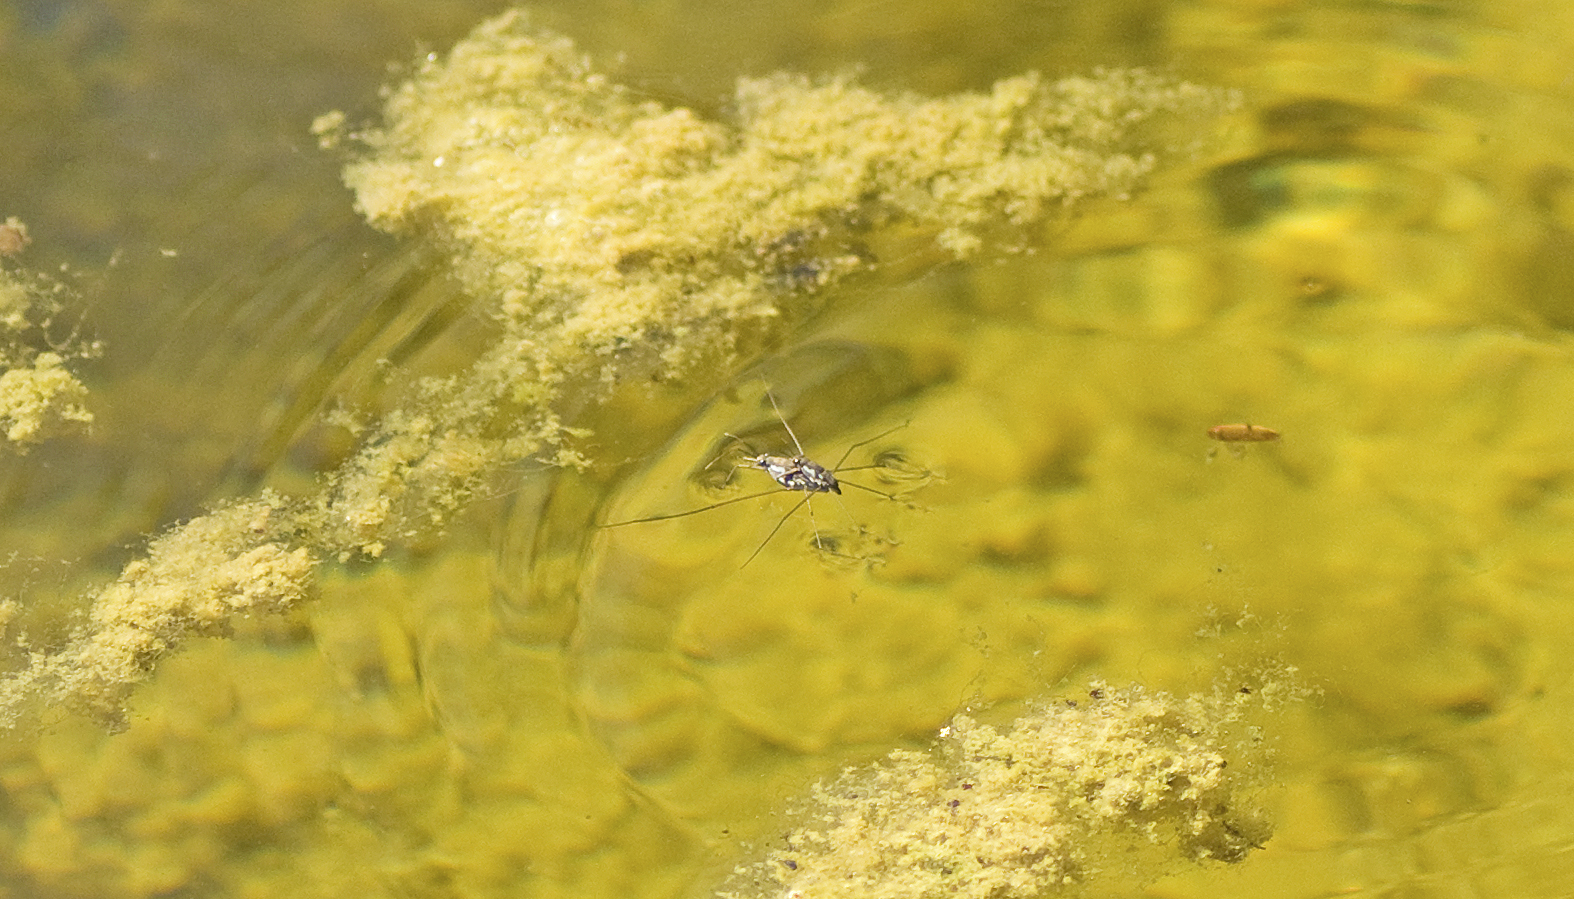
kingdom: Animalia
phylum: Arthropoda
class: Insecta
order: Hemiptera
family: Gerridae
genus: Tenagogerris
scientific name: Tenagogerris euphrosyne
